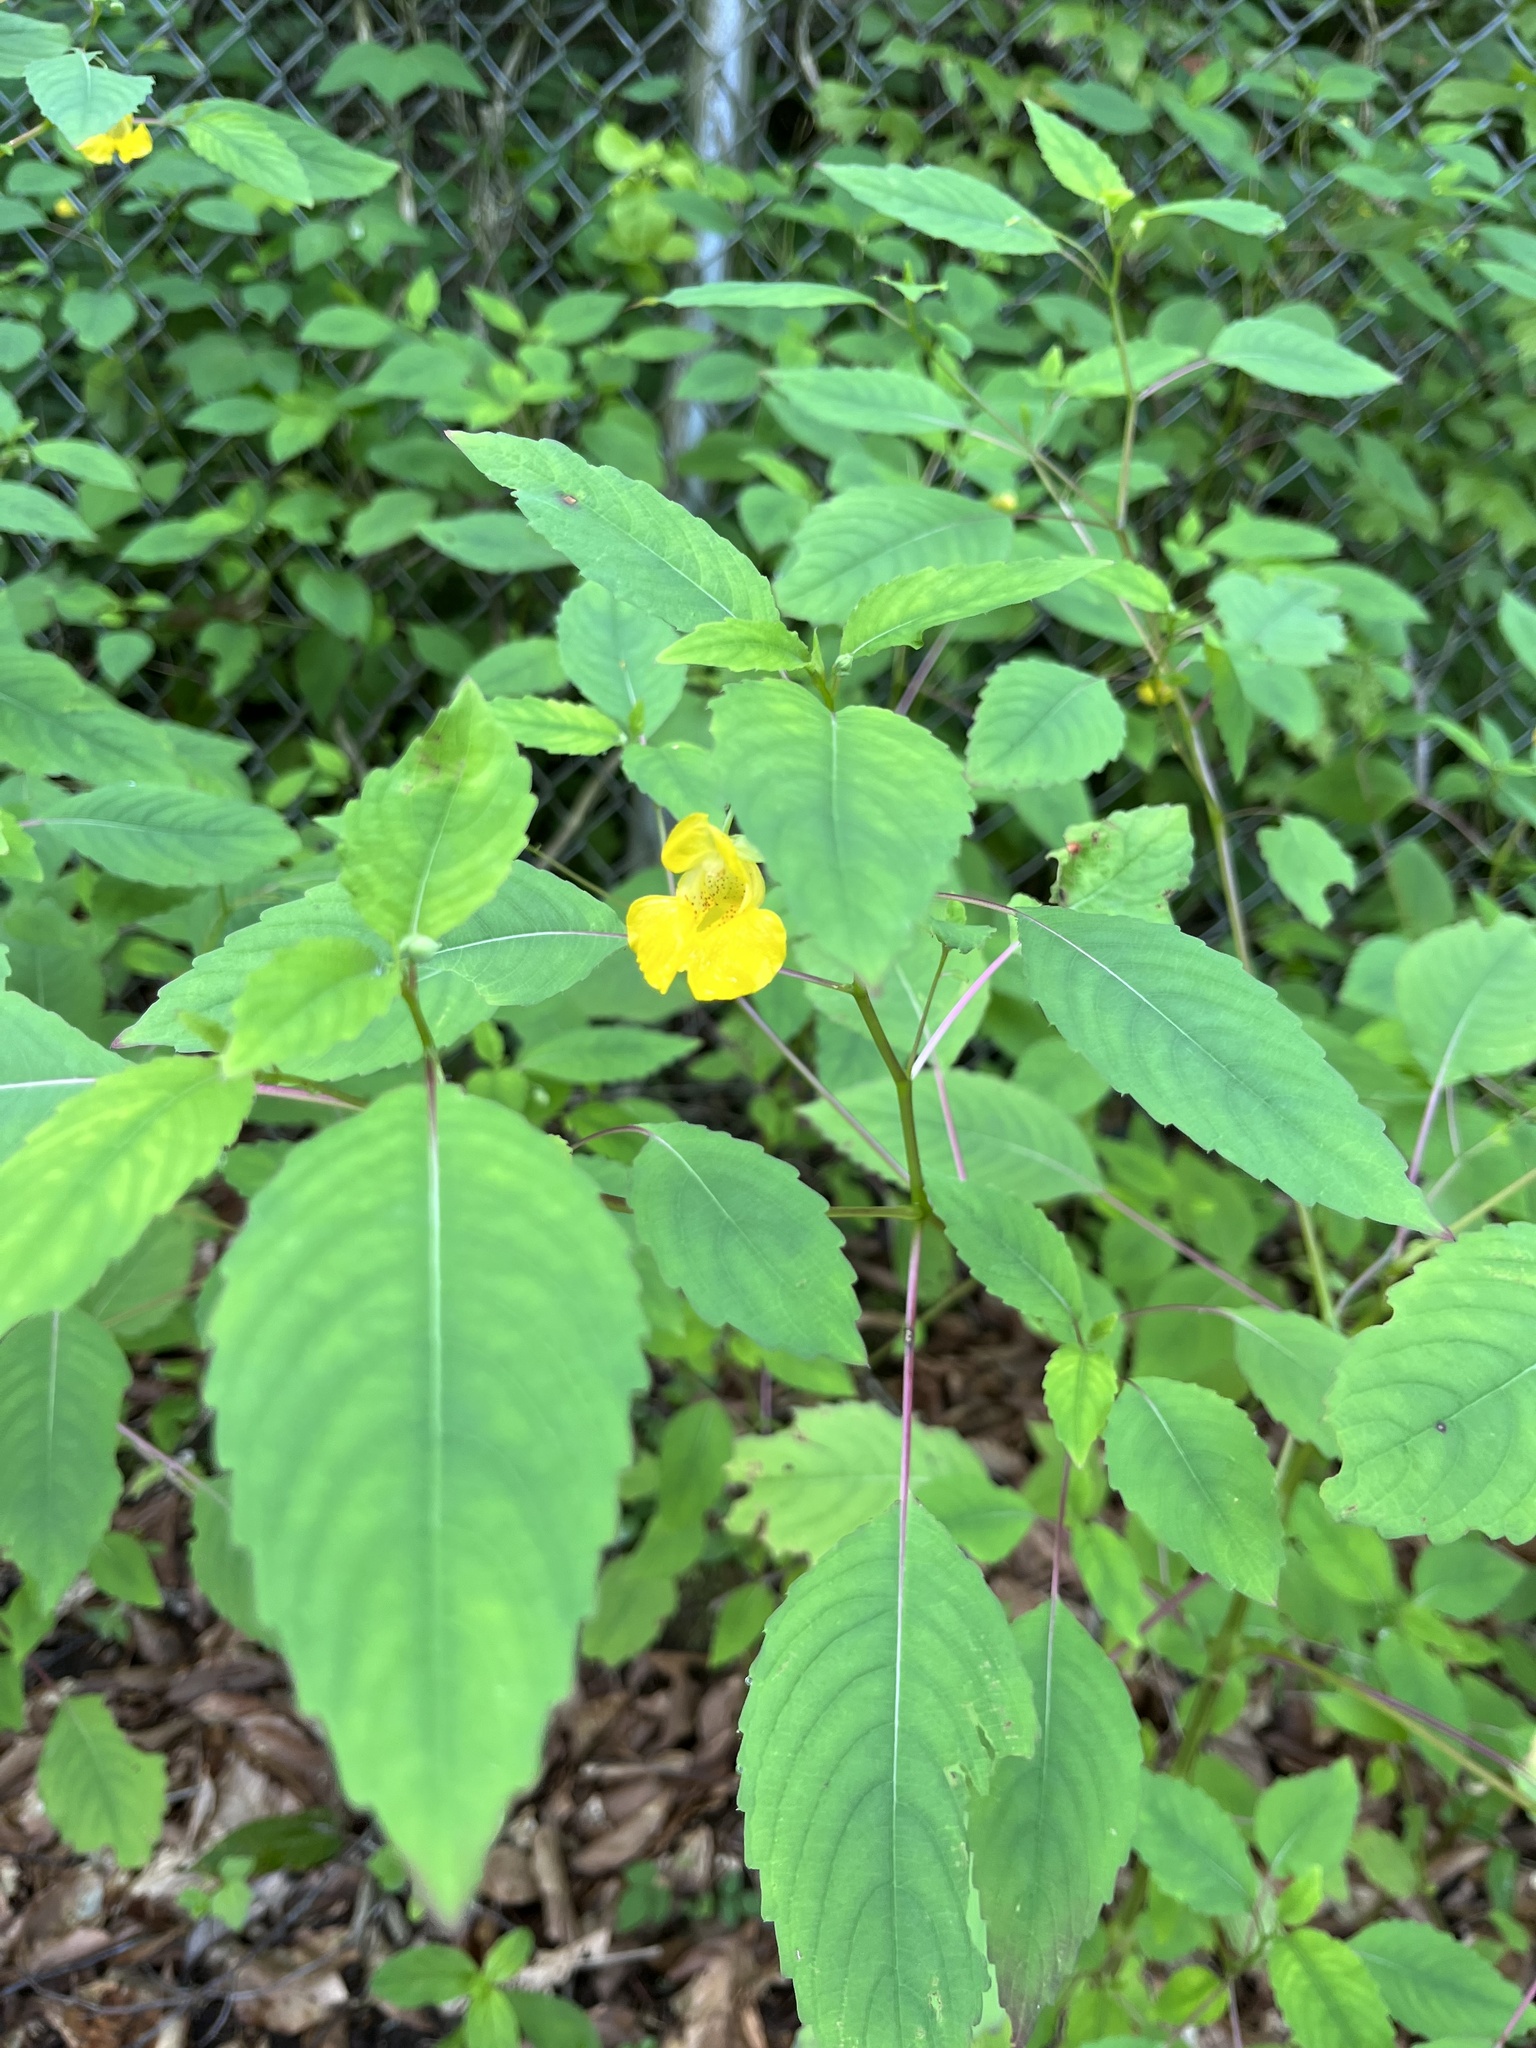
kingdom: Plantae
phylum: Tracheophyta
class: Magnoliopsida
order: Ericales
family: Balsaminaceae
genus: Impatiens
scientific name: Impatiens pallida
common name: Pale snapweed
